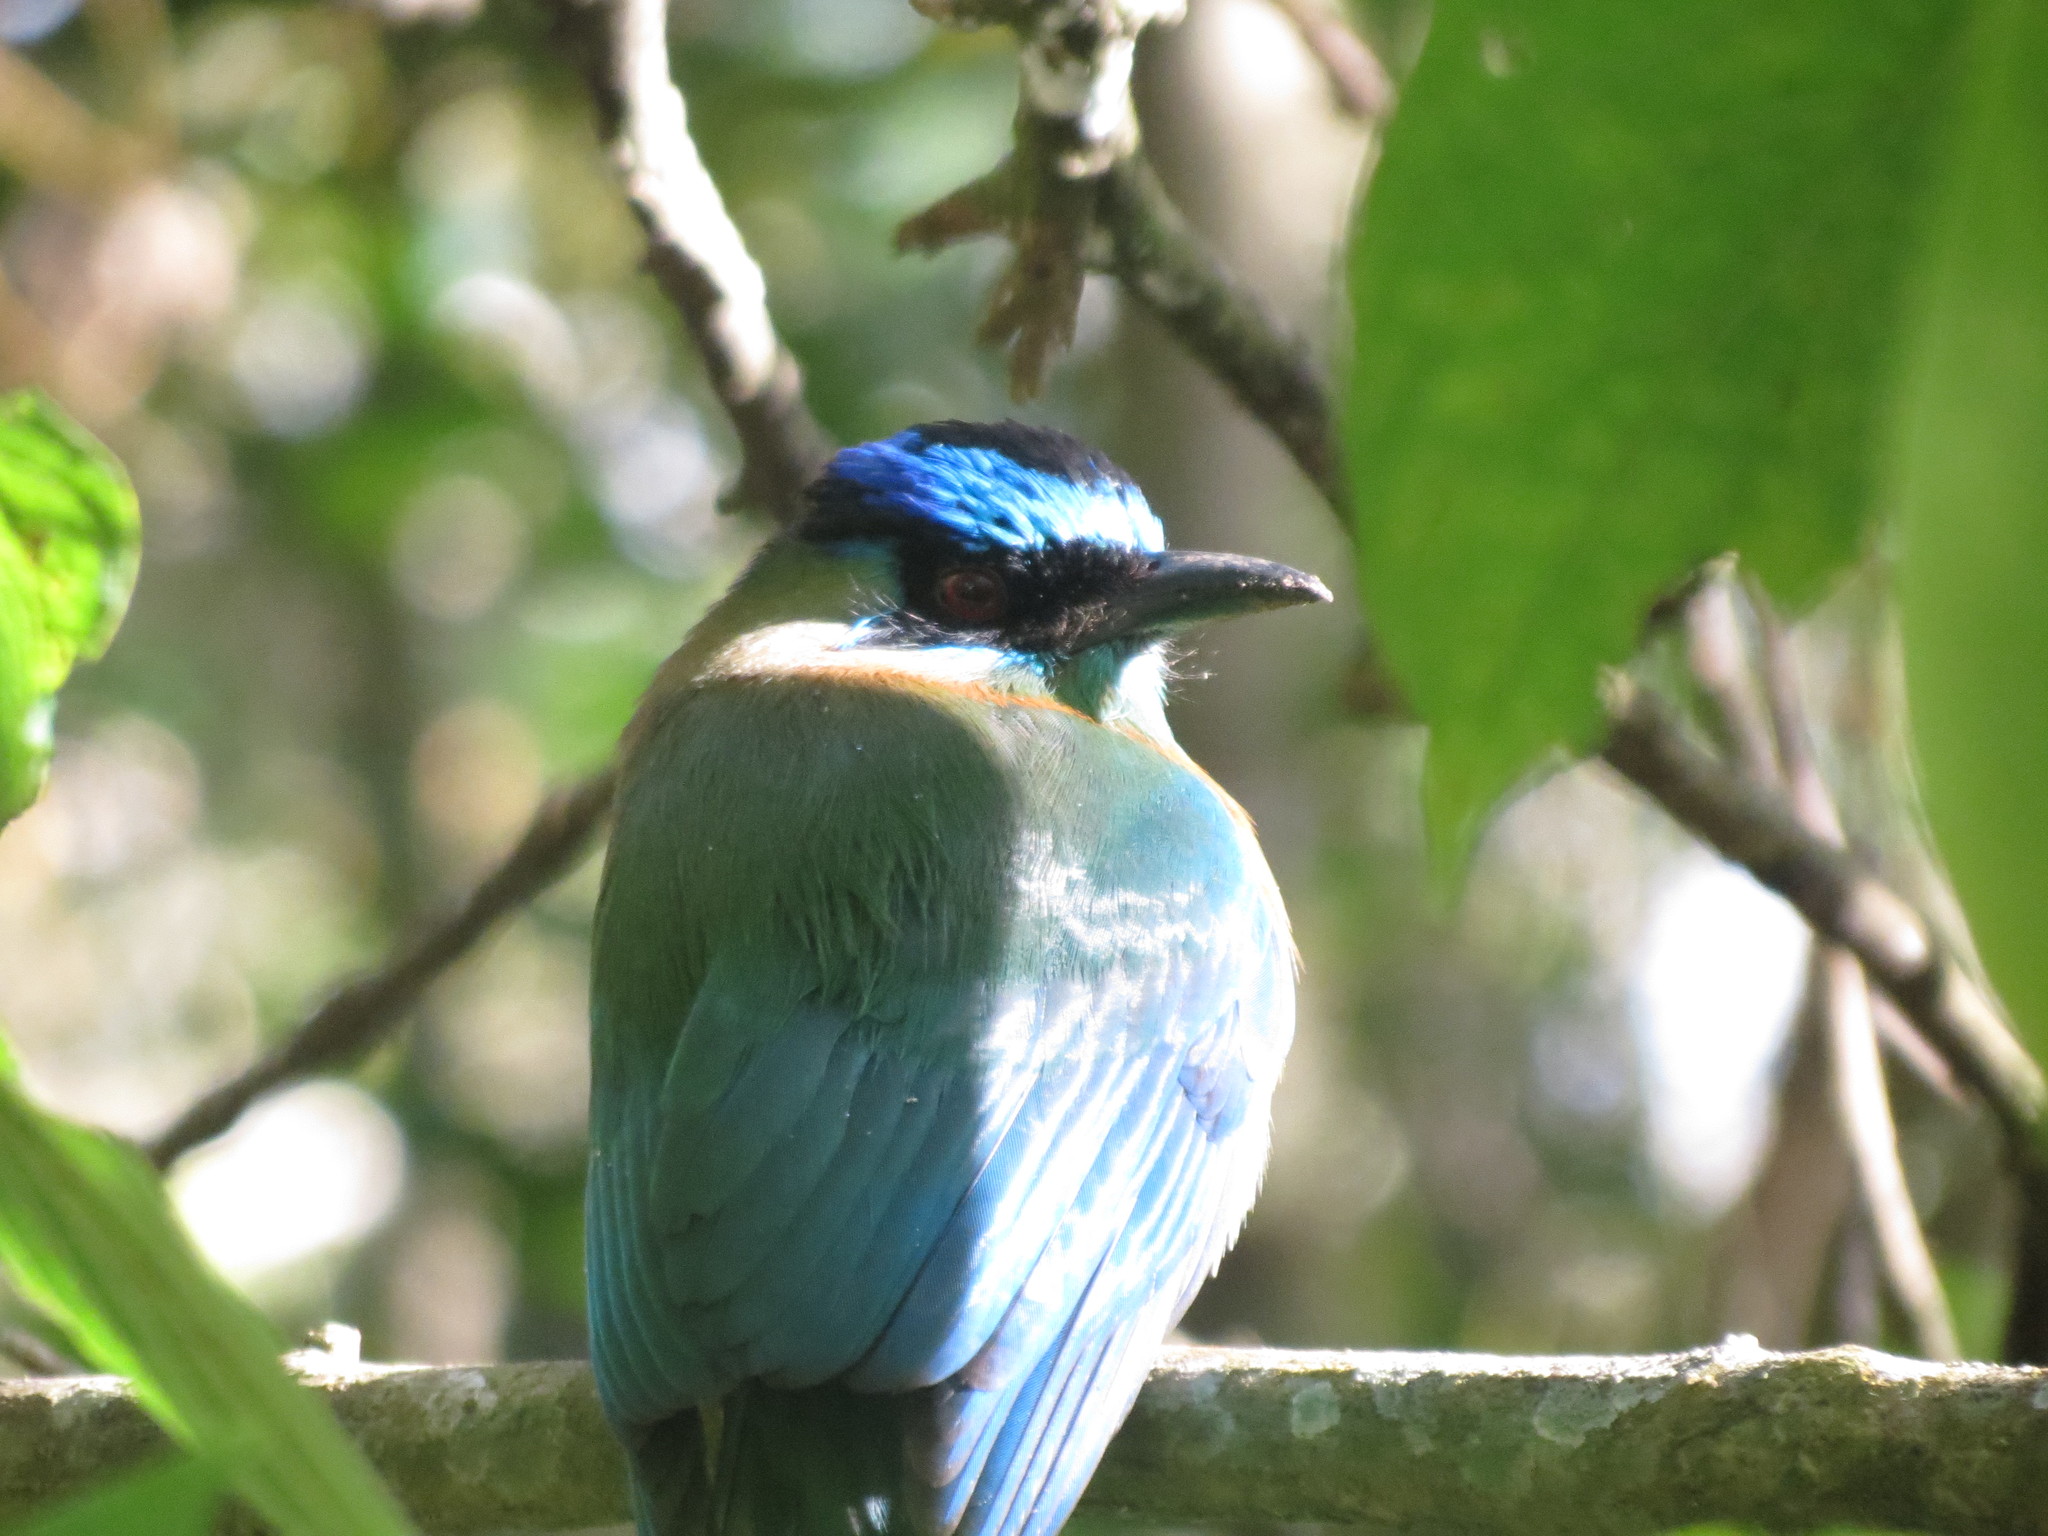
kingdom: Animalia
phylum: Chordata
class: Aves
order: Coraciiformes
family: Momotidae
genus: Momotus
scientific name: Momotus lessonii
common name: Lesson's motmot
